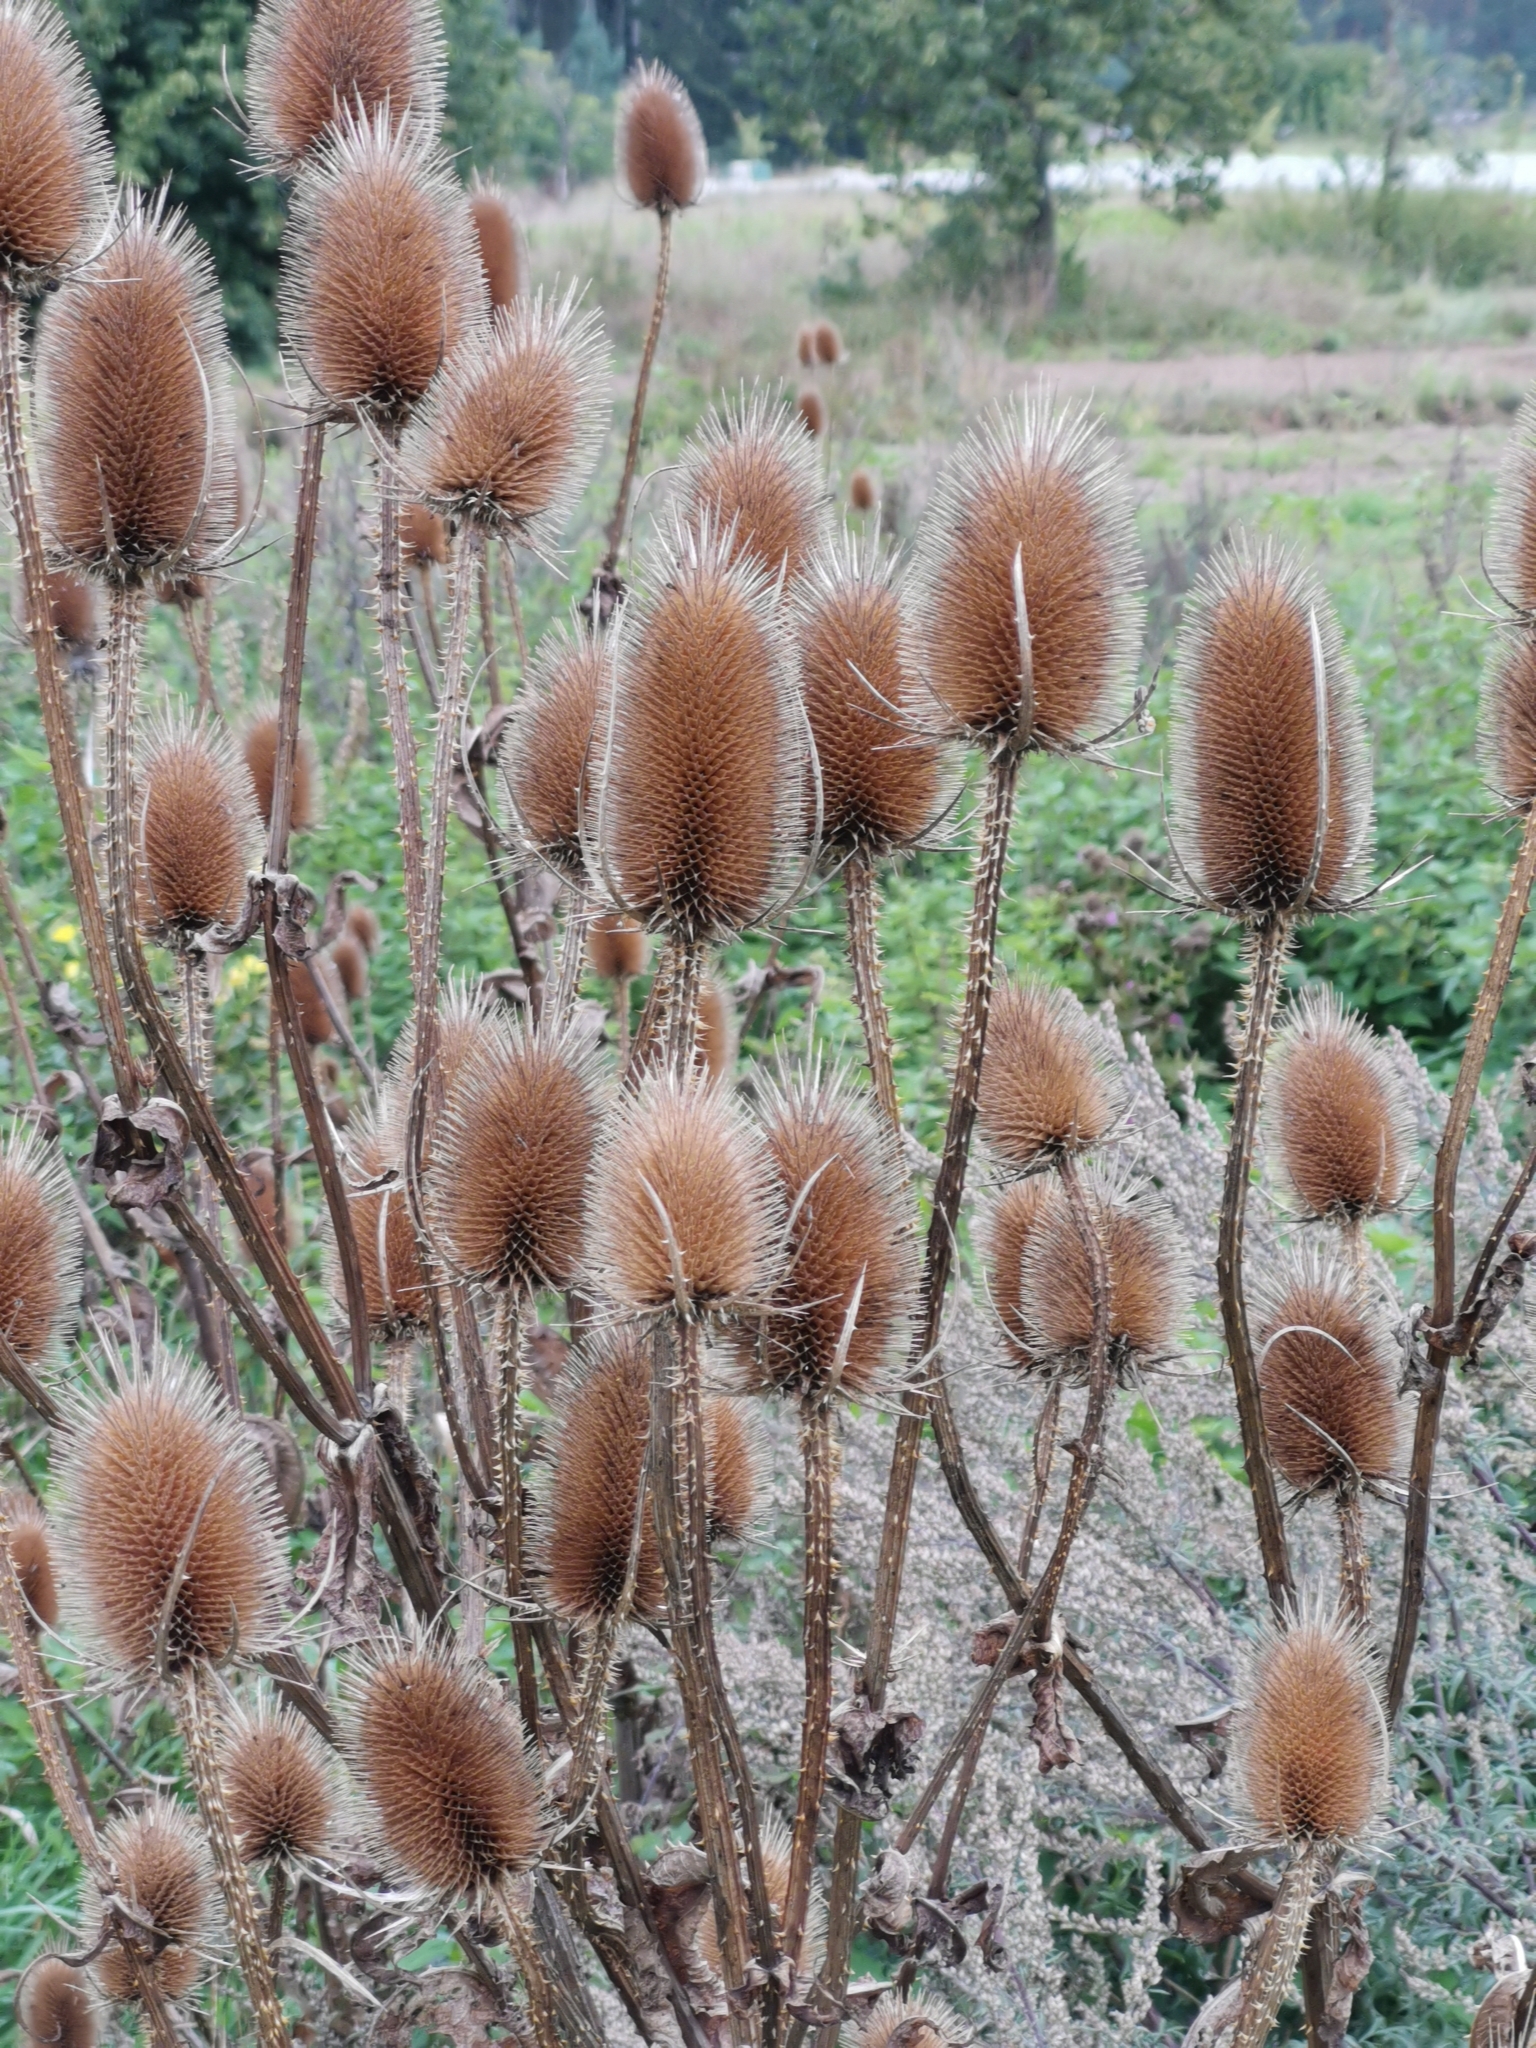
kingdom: Plantae
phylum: Tracheophyta
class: Magnoliopsida
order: Dipsacales
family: Caprifoliaceae
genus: Dipsacus
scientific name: Dipsacus fullonum
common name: Teasel
